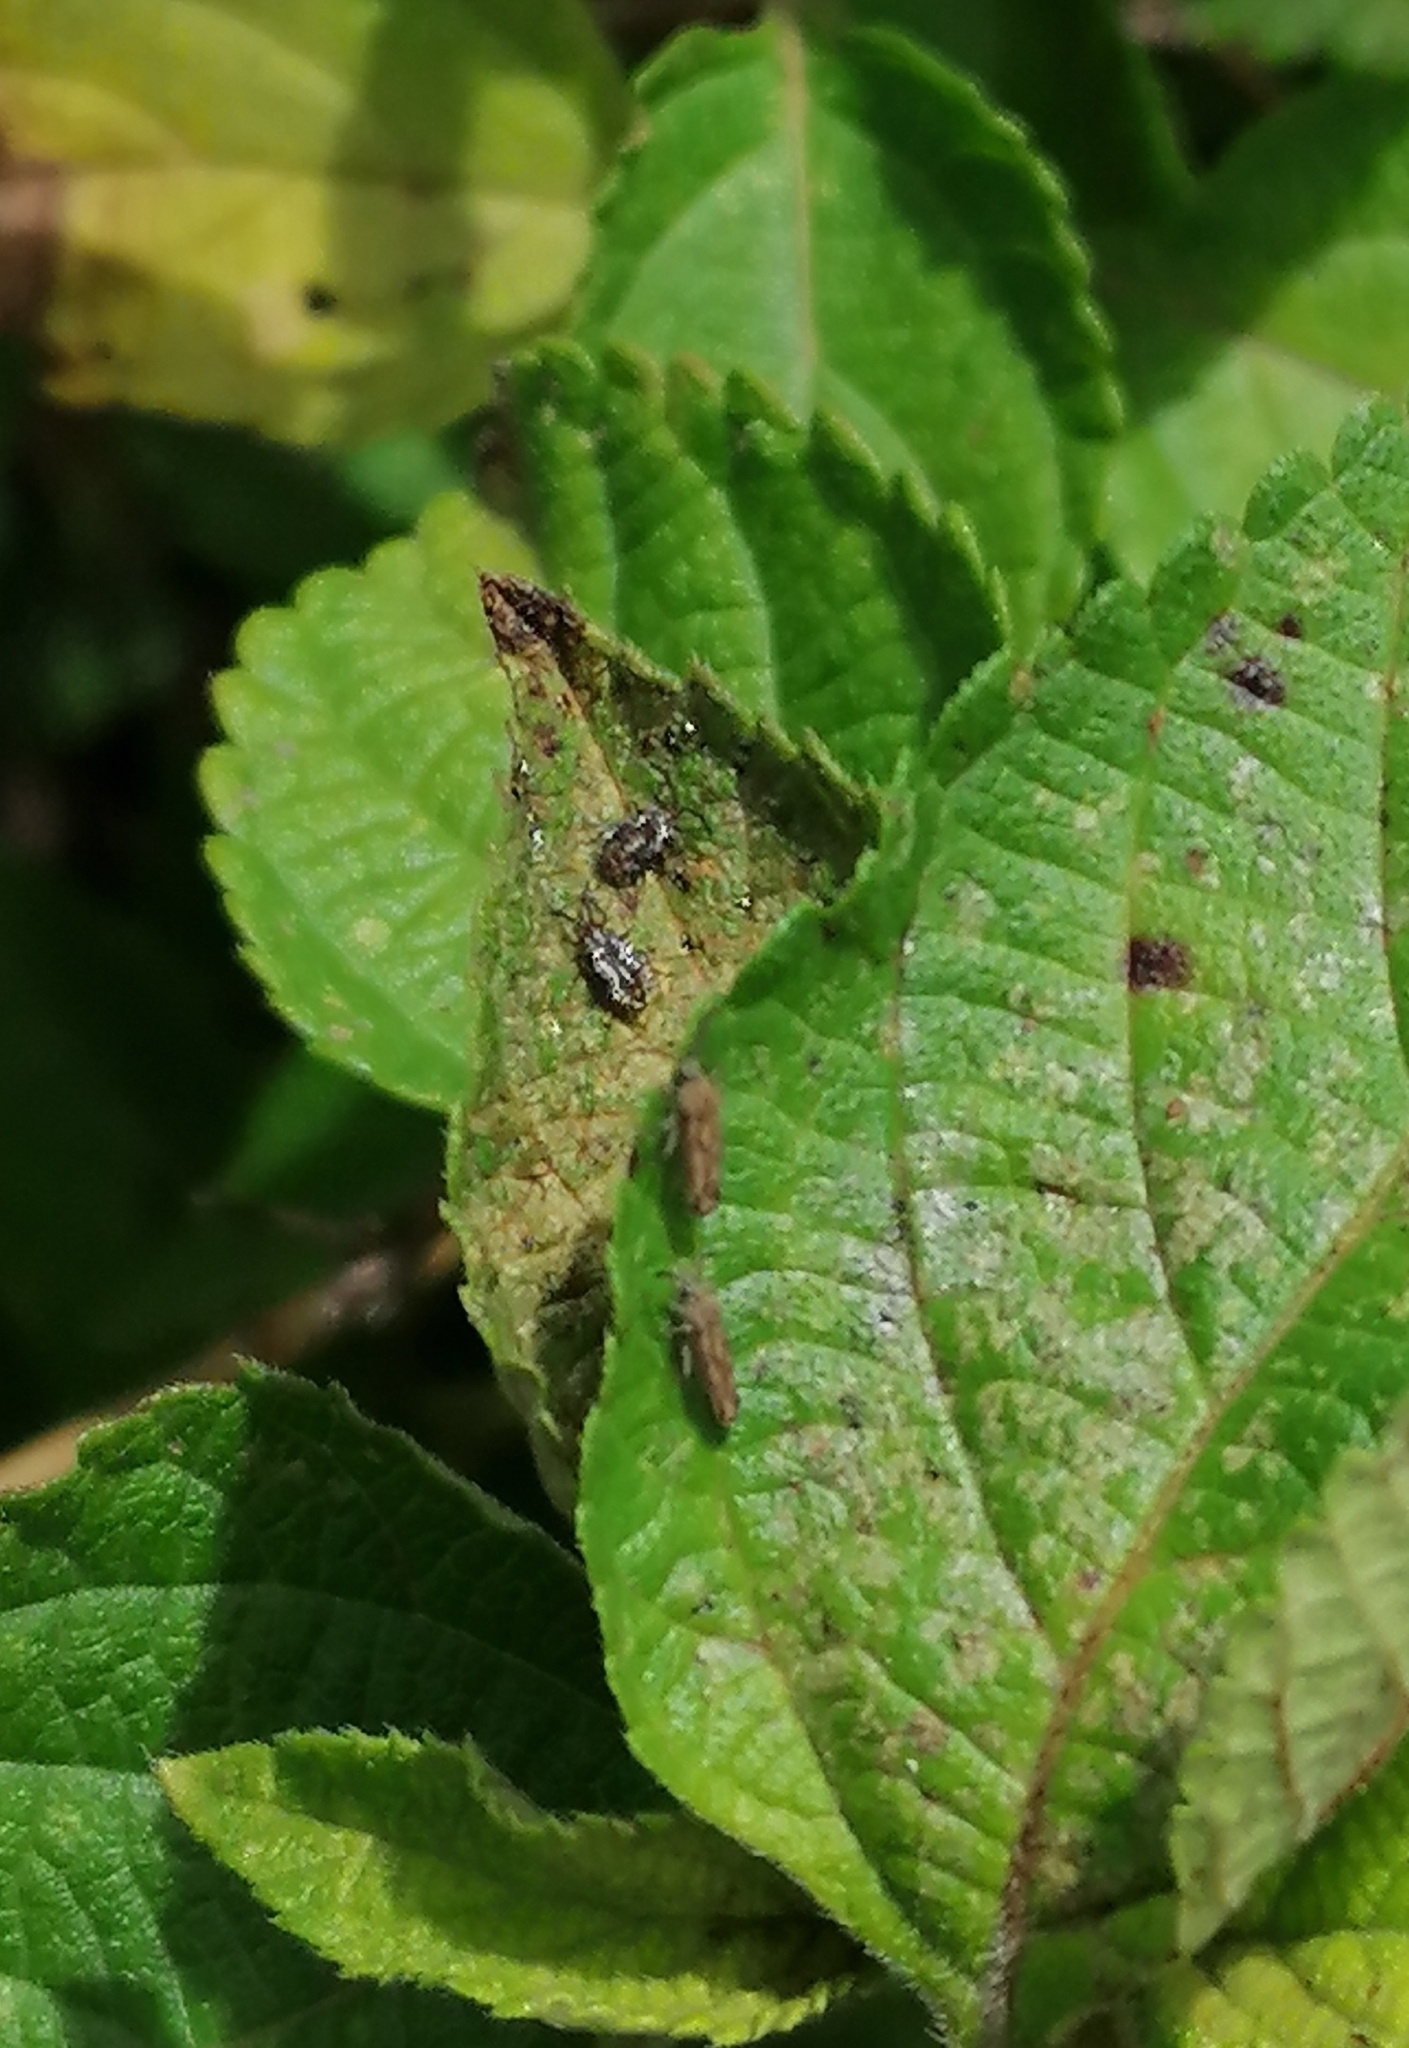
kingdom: Animalia
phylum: Arthropoda
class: Insecta
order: Hemiptera
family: Tingidae
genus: Teleonemia
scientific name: Teleonemia scrupulosa
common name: Lantana lace bug
